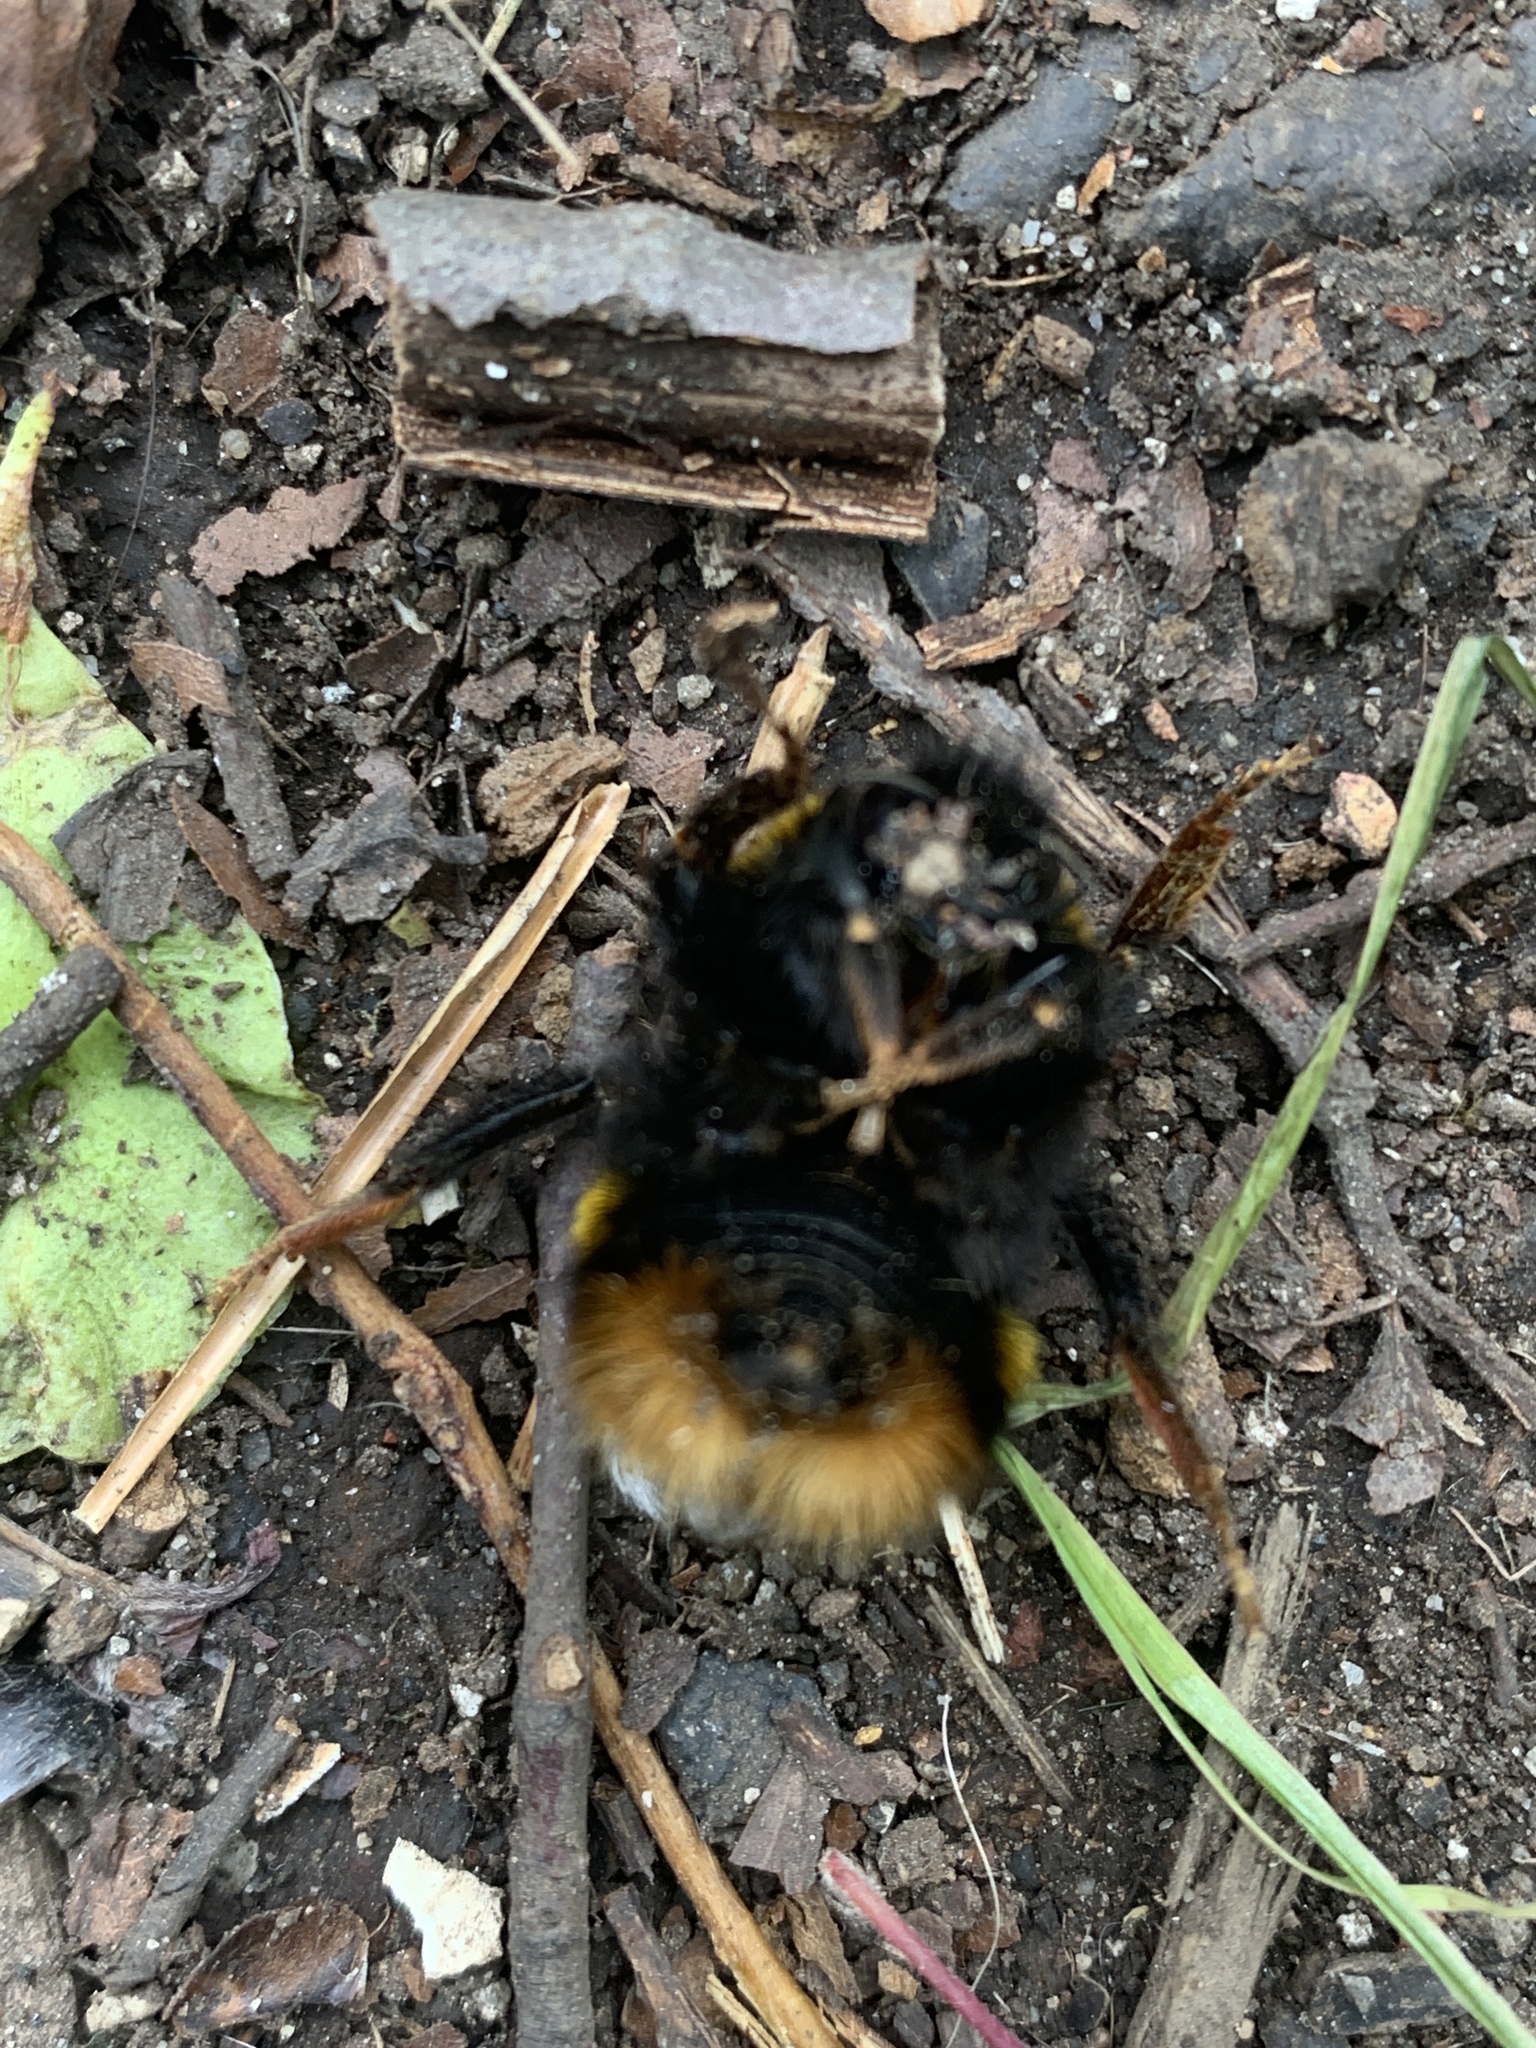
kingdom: Animalia
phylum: Arthropoda
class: Insecta
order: Hymenoptera
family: Apidae
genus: Bombus
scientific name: Bombus terrestris
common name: Buff-tailed bumblebee
